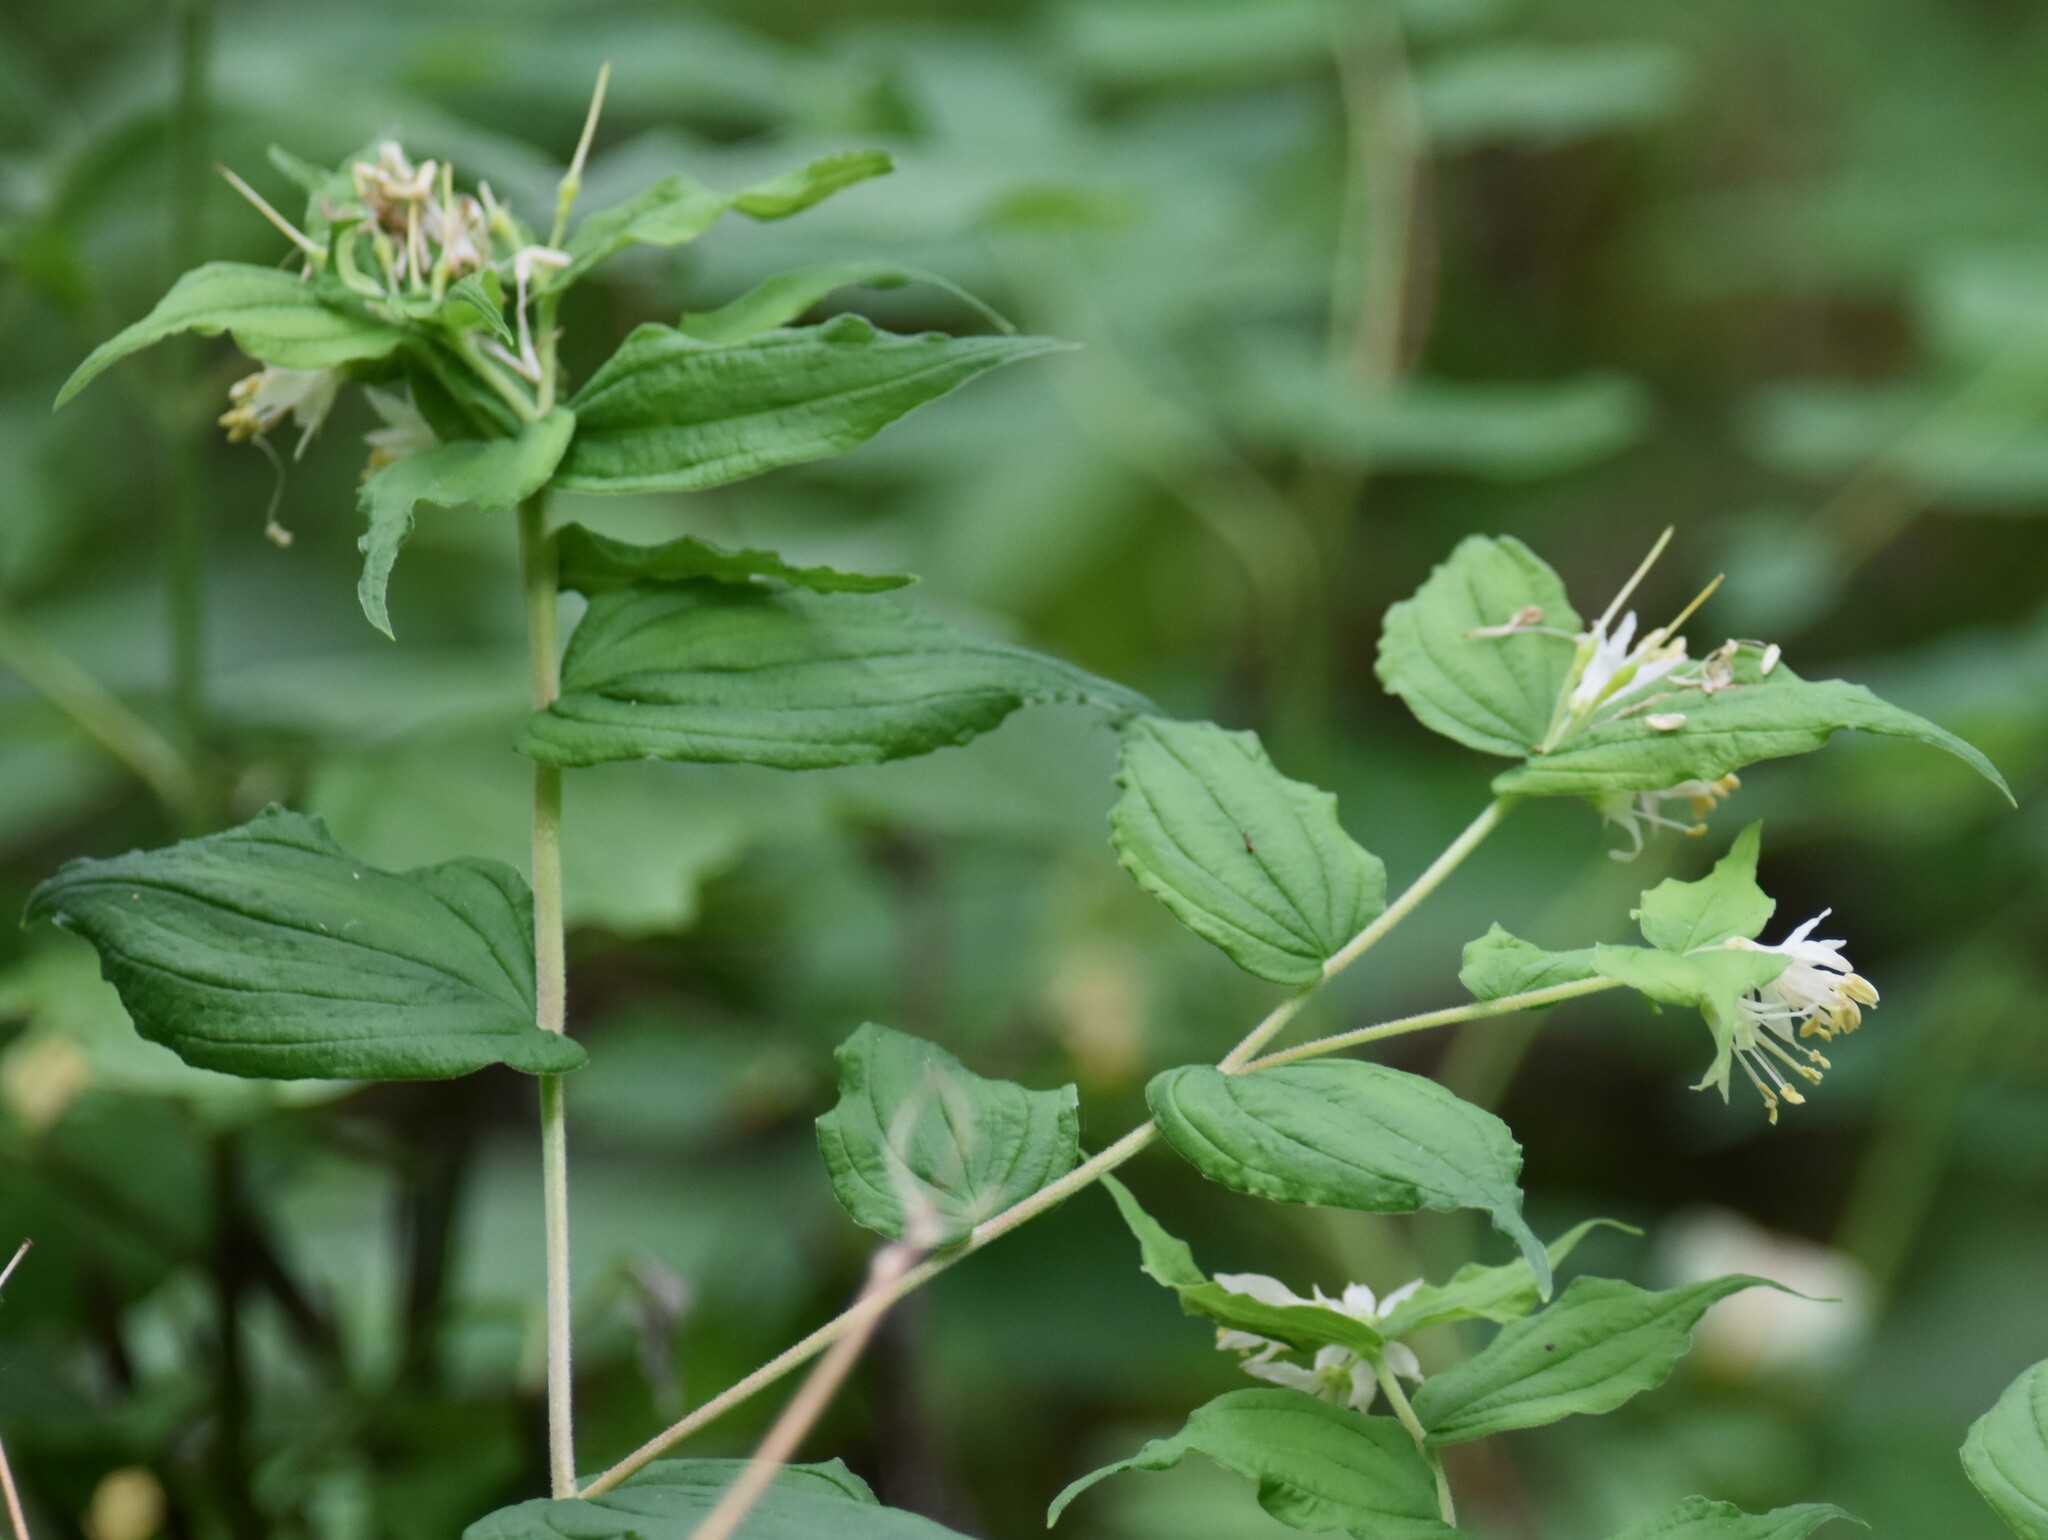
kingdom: Plantae
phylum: Tracheophyta
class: Liliopsida
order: Liliales
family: Liliaceae
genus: Prosartes
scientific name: Prosartes hookeri
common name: Fairy-bells
